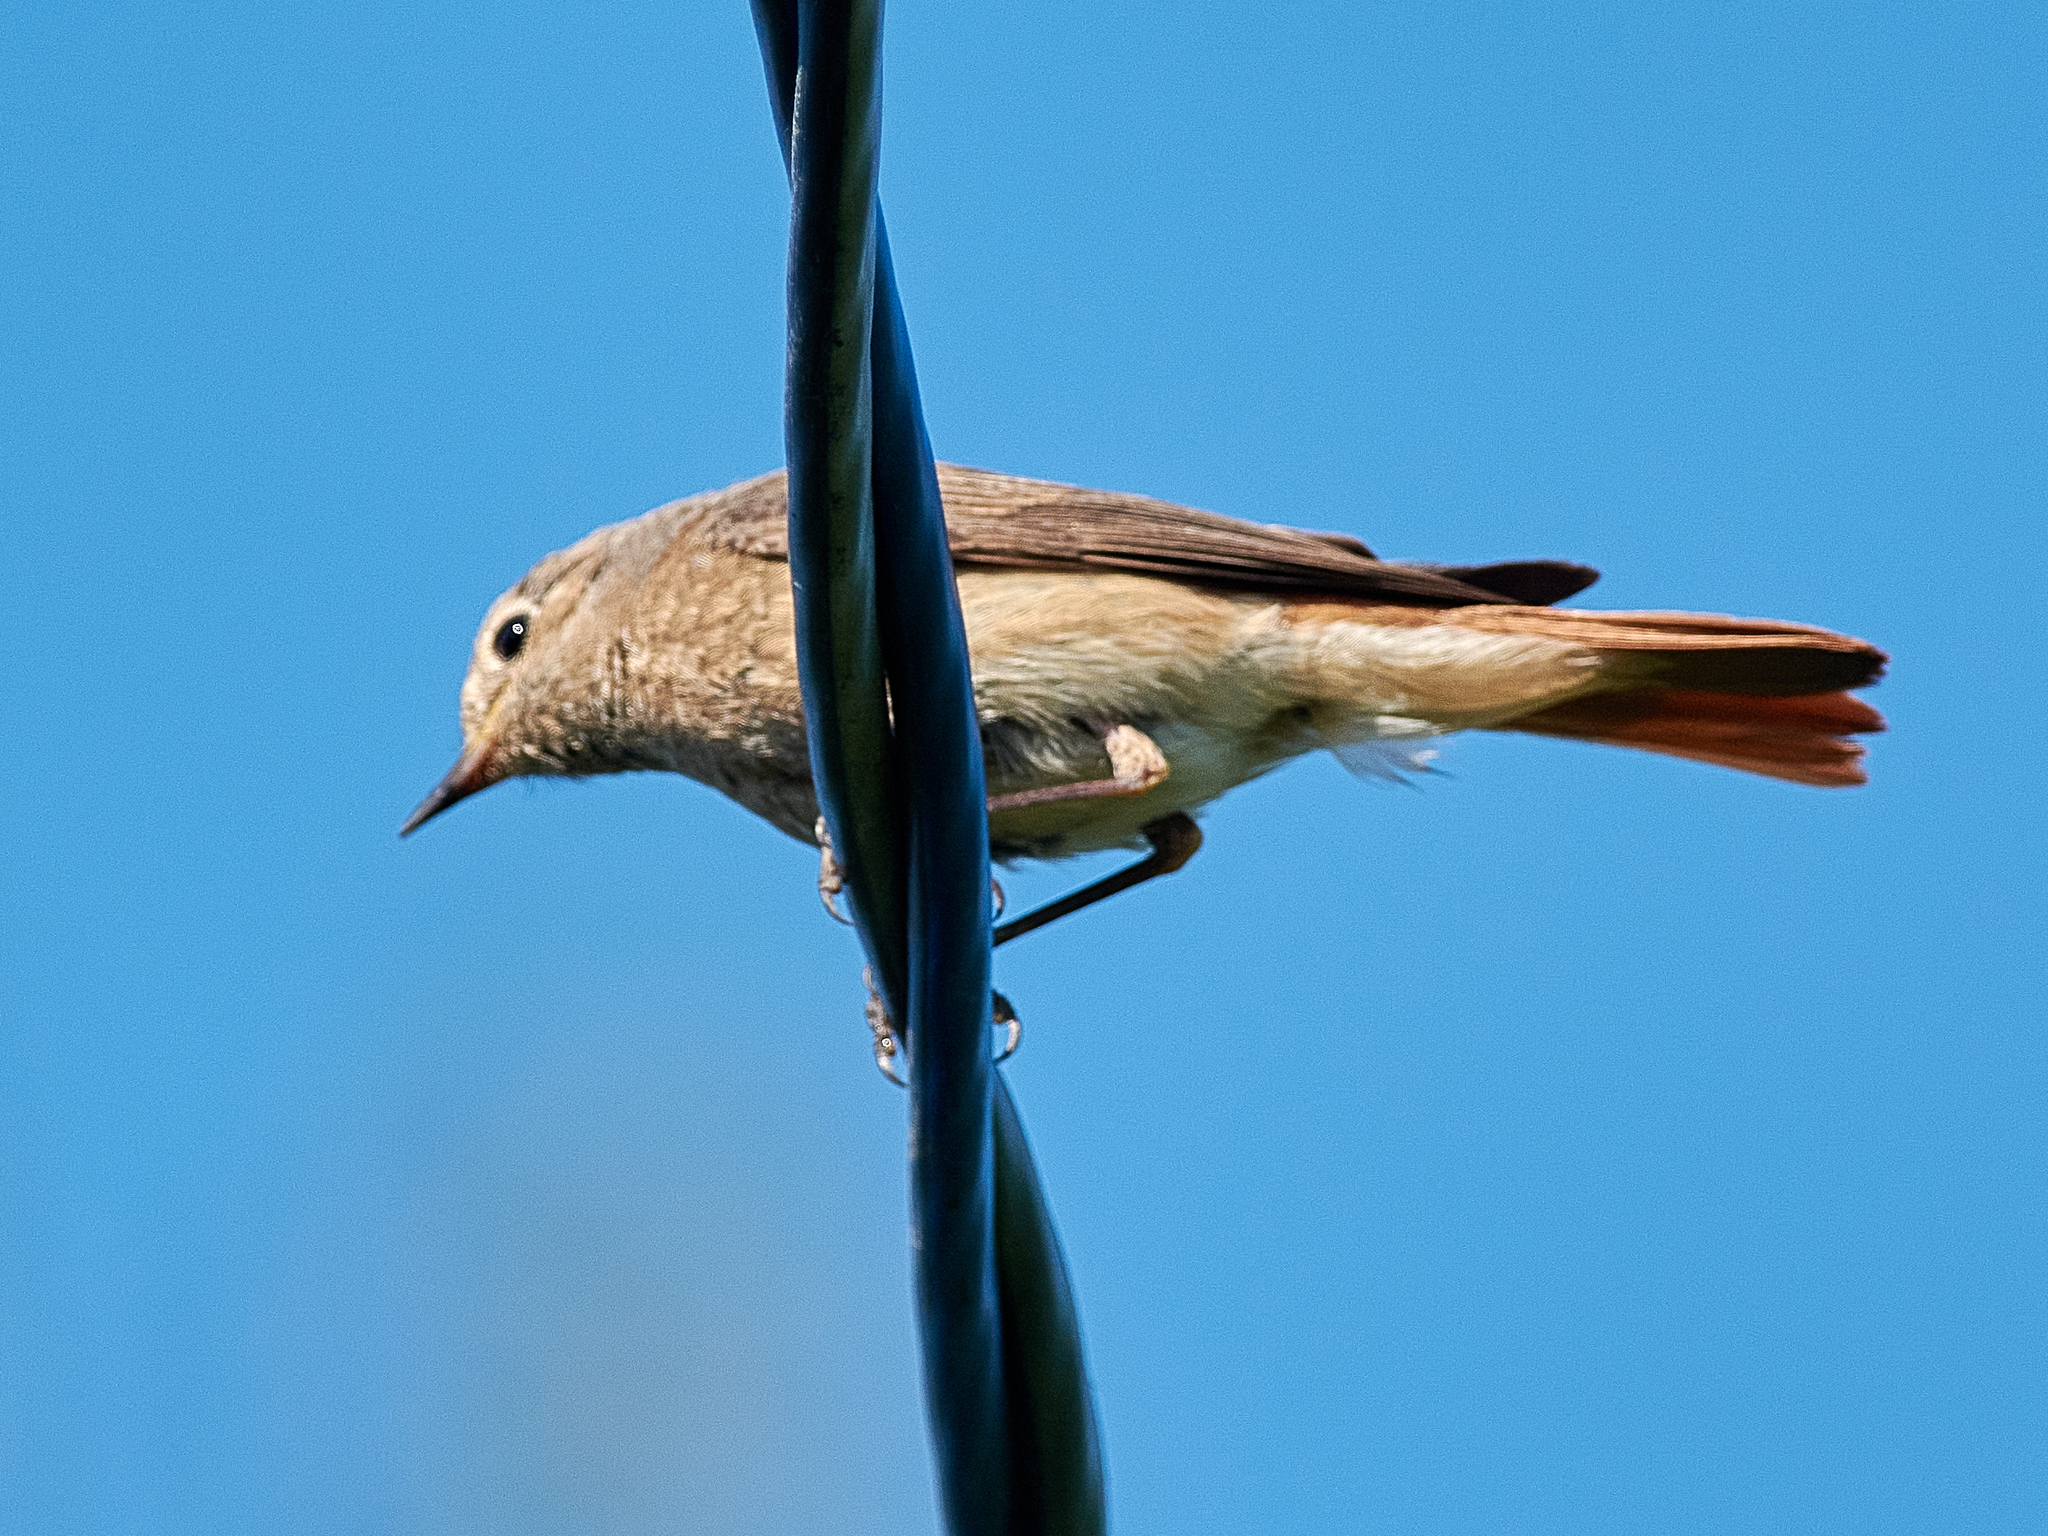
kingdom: Animalia
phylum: Chordata
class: Aves
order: Passeriformes
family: Muscicapidae
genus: Phoenicurus
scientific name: Phoenicurus phoenicurus
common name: Common redstart
